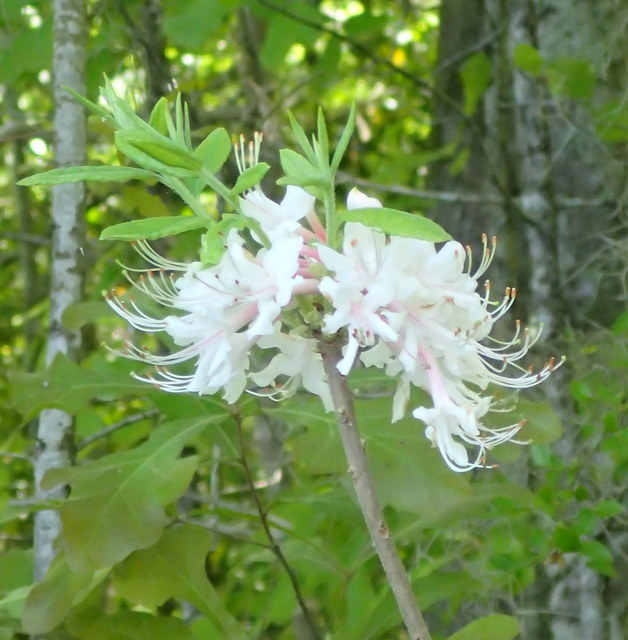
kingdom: Plantae
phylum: Tracheophyta
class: Magnoliopsida
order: Ericales
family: Ericaceae
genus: Rhododendron
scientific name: Rhododendron canescens
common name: Mountain azalea
